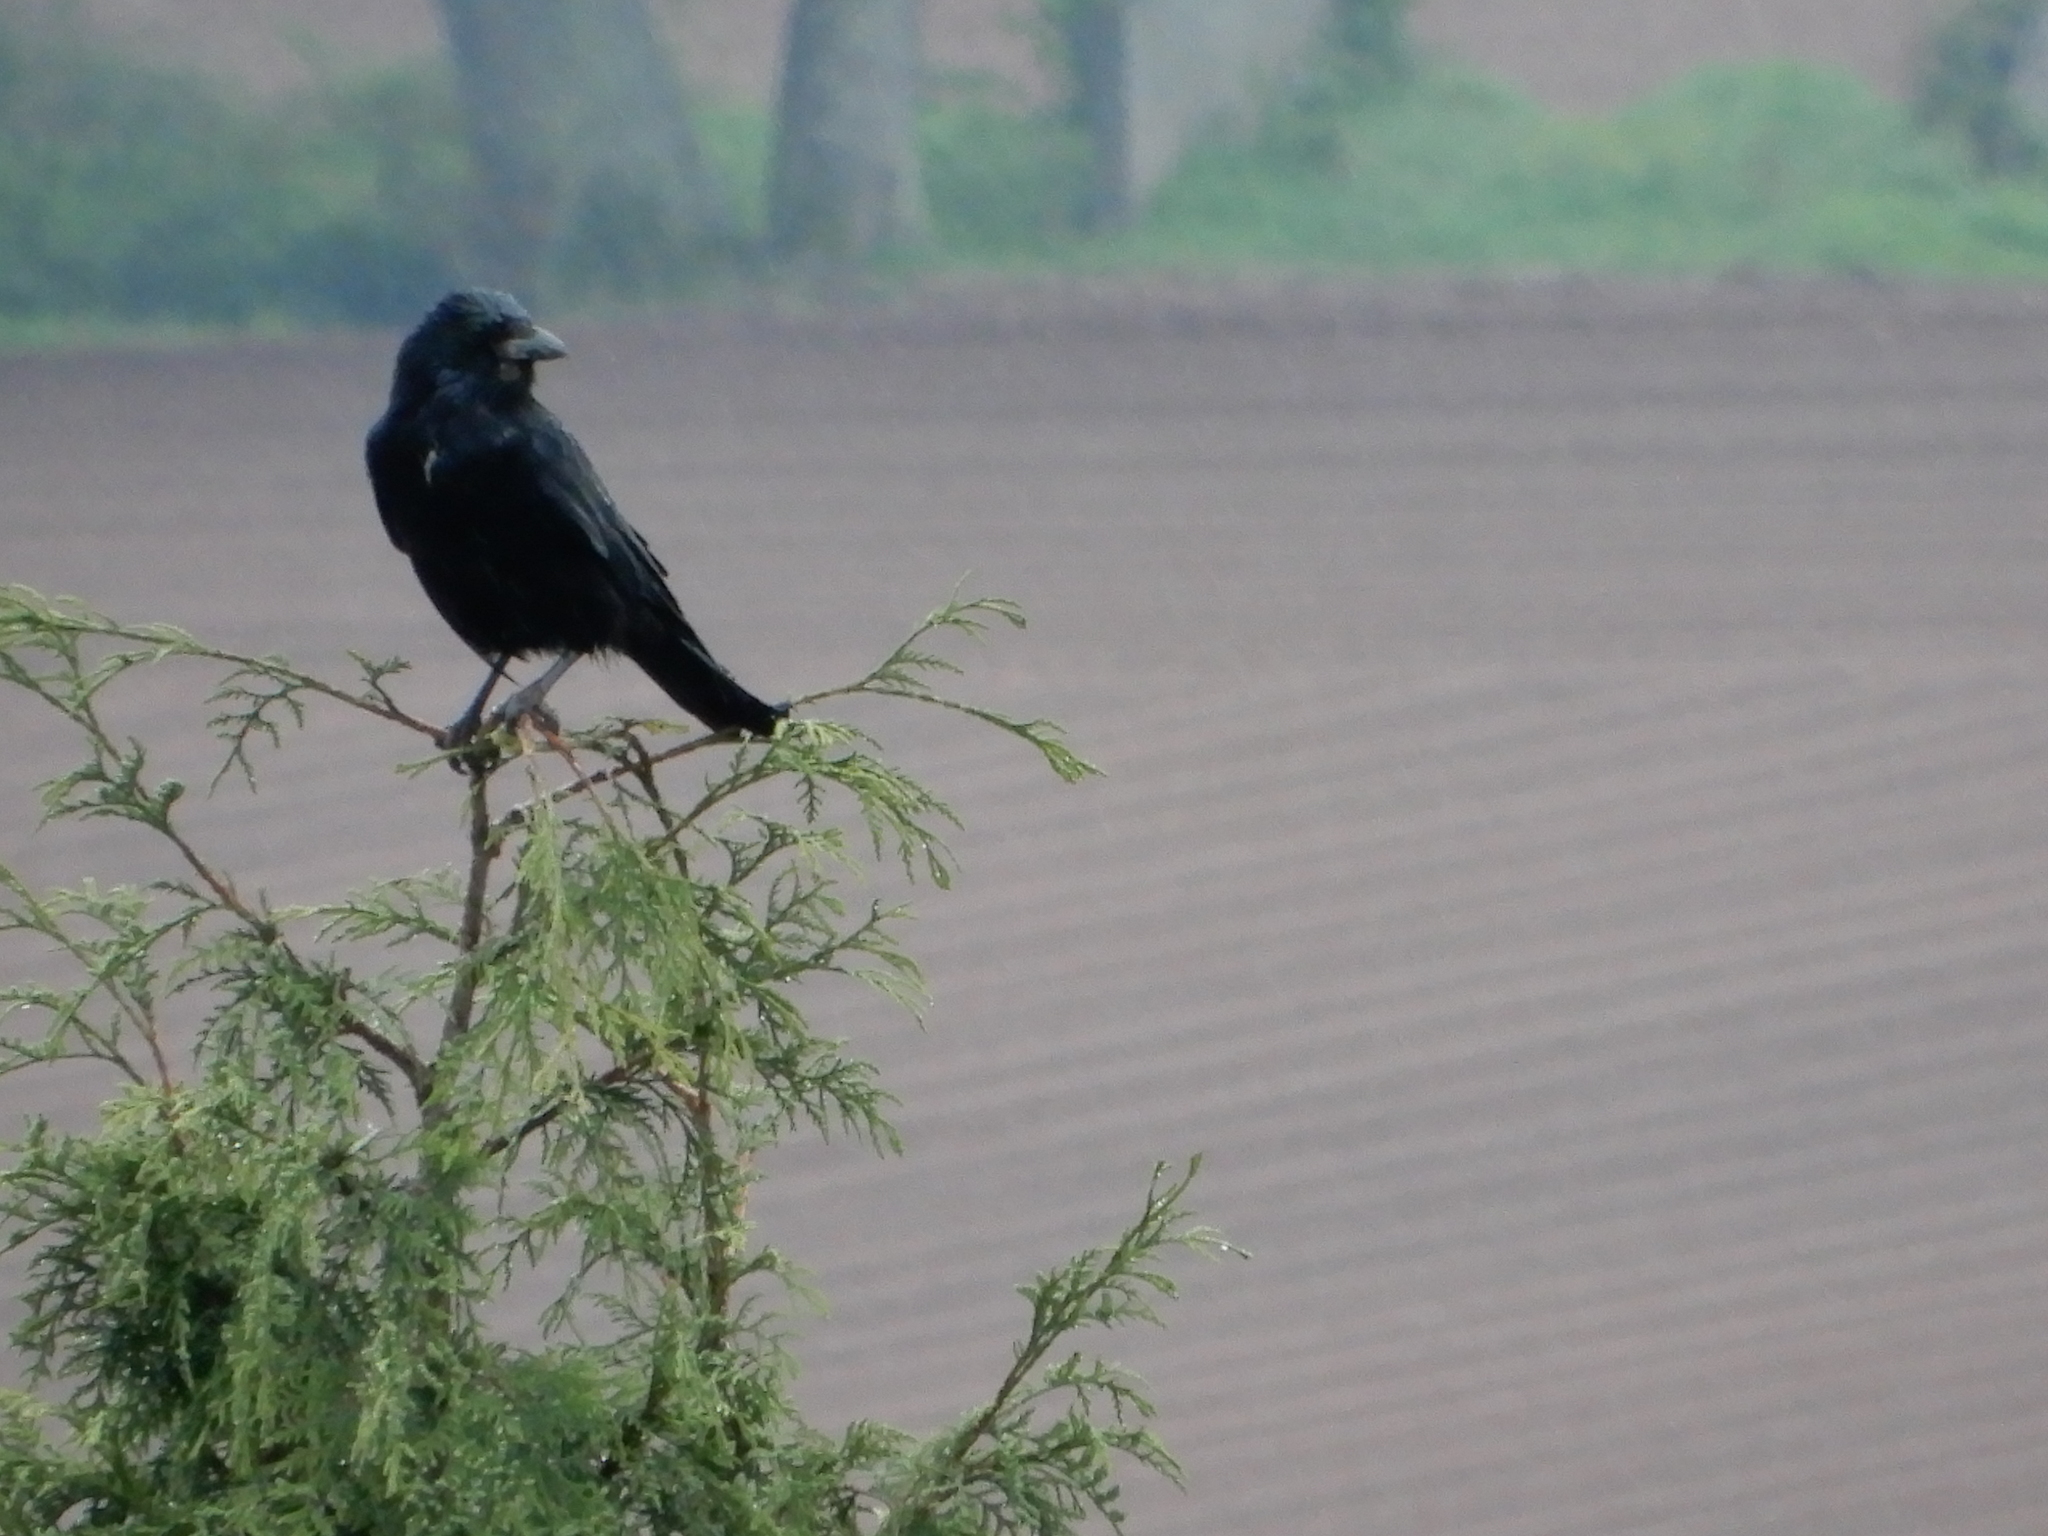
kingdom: Animalia
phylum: Chordata
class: Aves
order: Passeriformes
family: Corvidae
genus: Corvus
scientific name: Corvus corone
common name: Carrion crow
